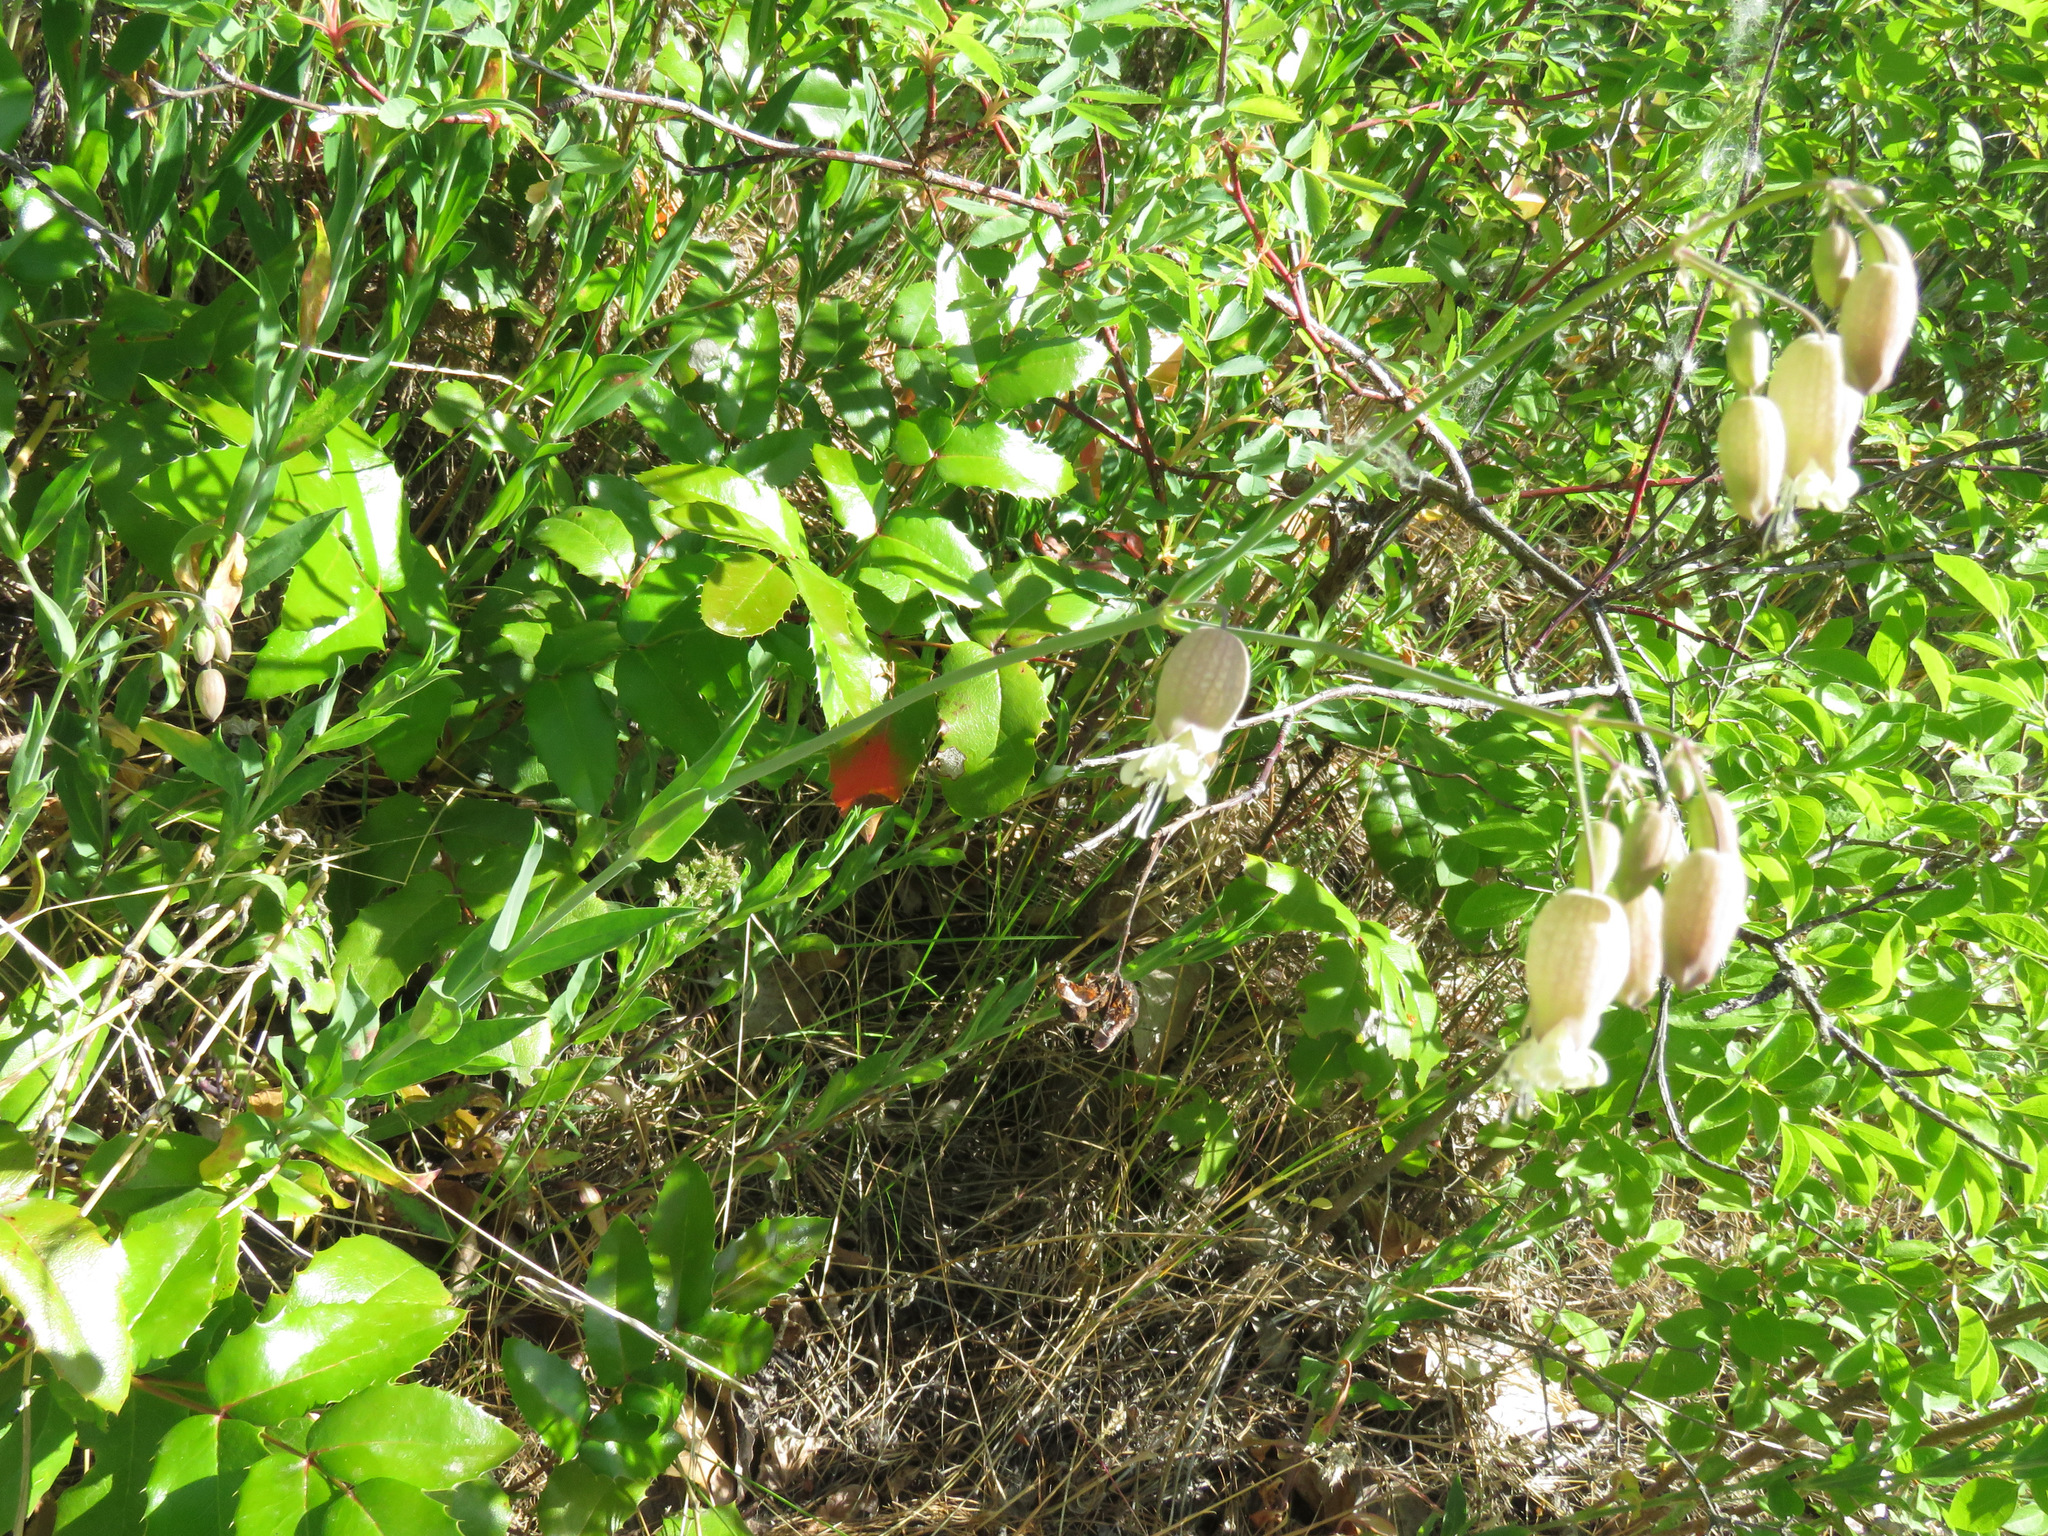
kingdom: Plantae
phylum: Tracheophyta
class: Magnoliopsida
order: Caryophyllales
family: Caryophyllaceae
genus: Silene
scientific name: Silene vulgaris
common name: Bladder campion
